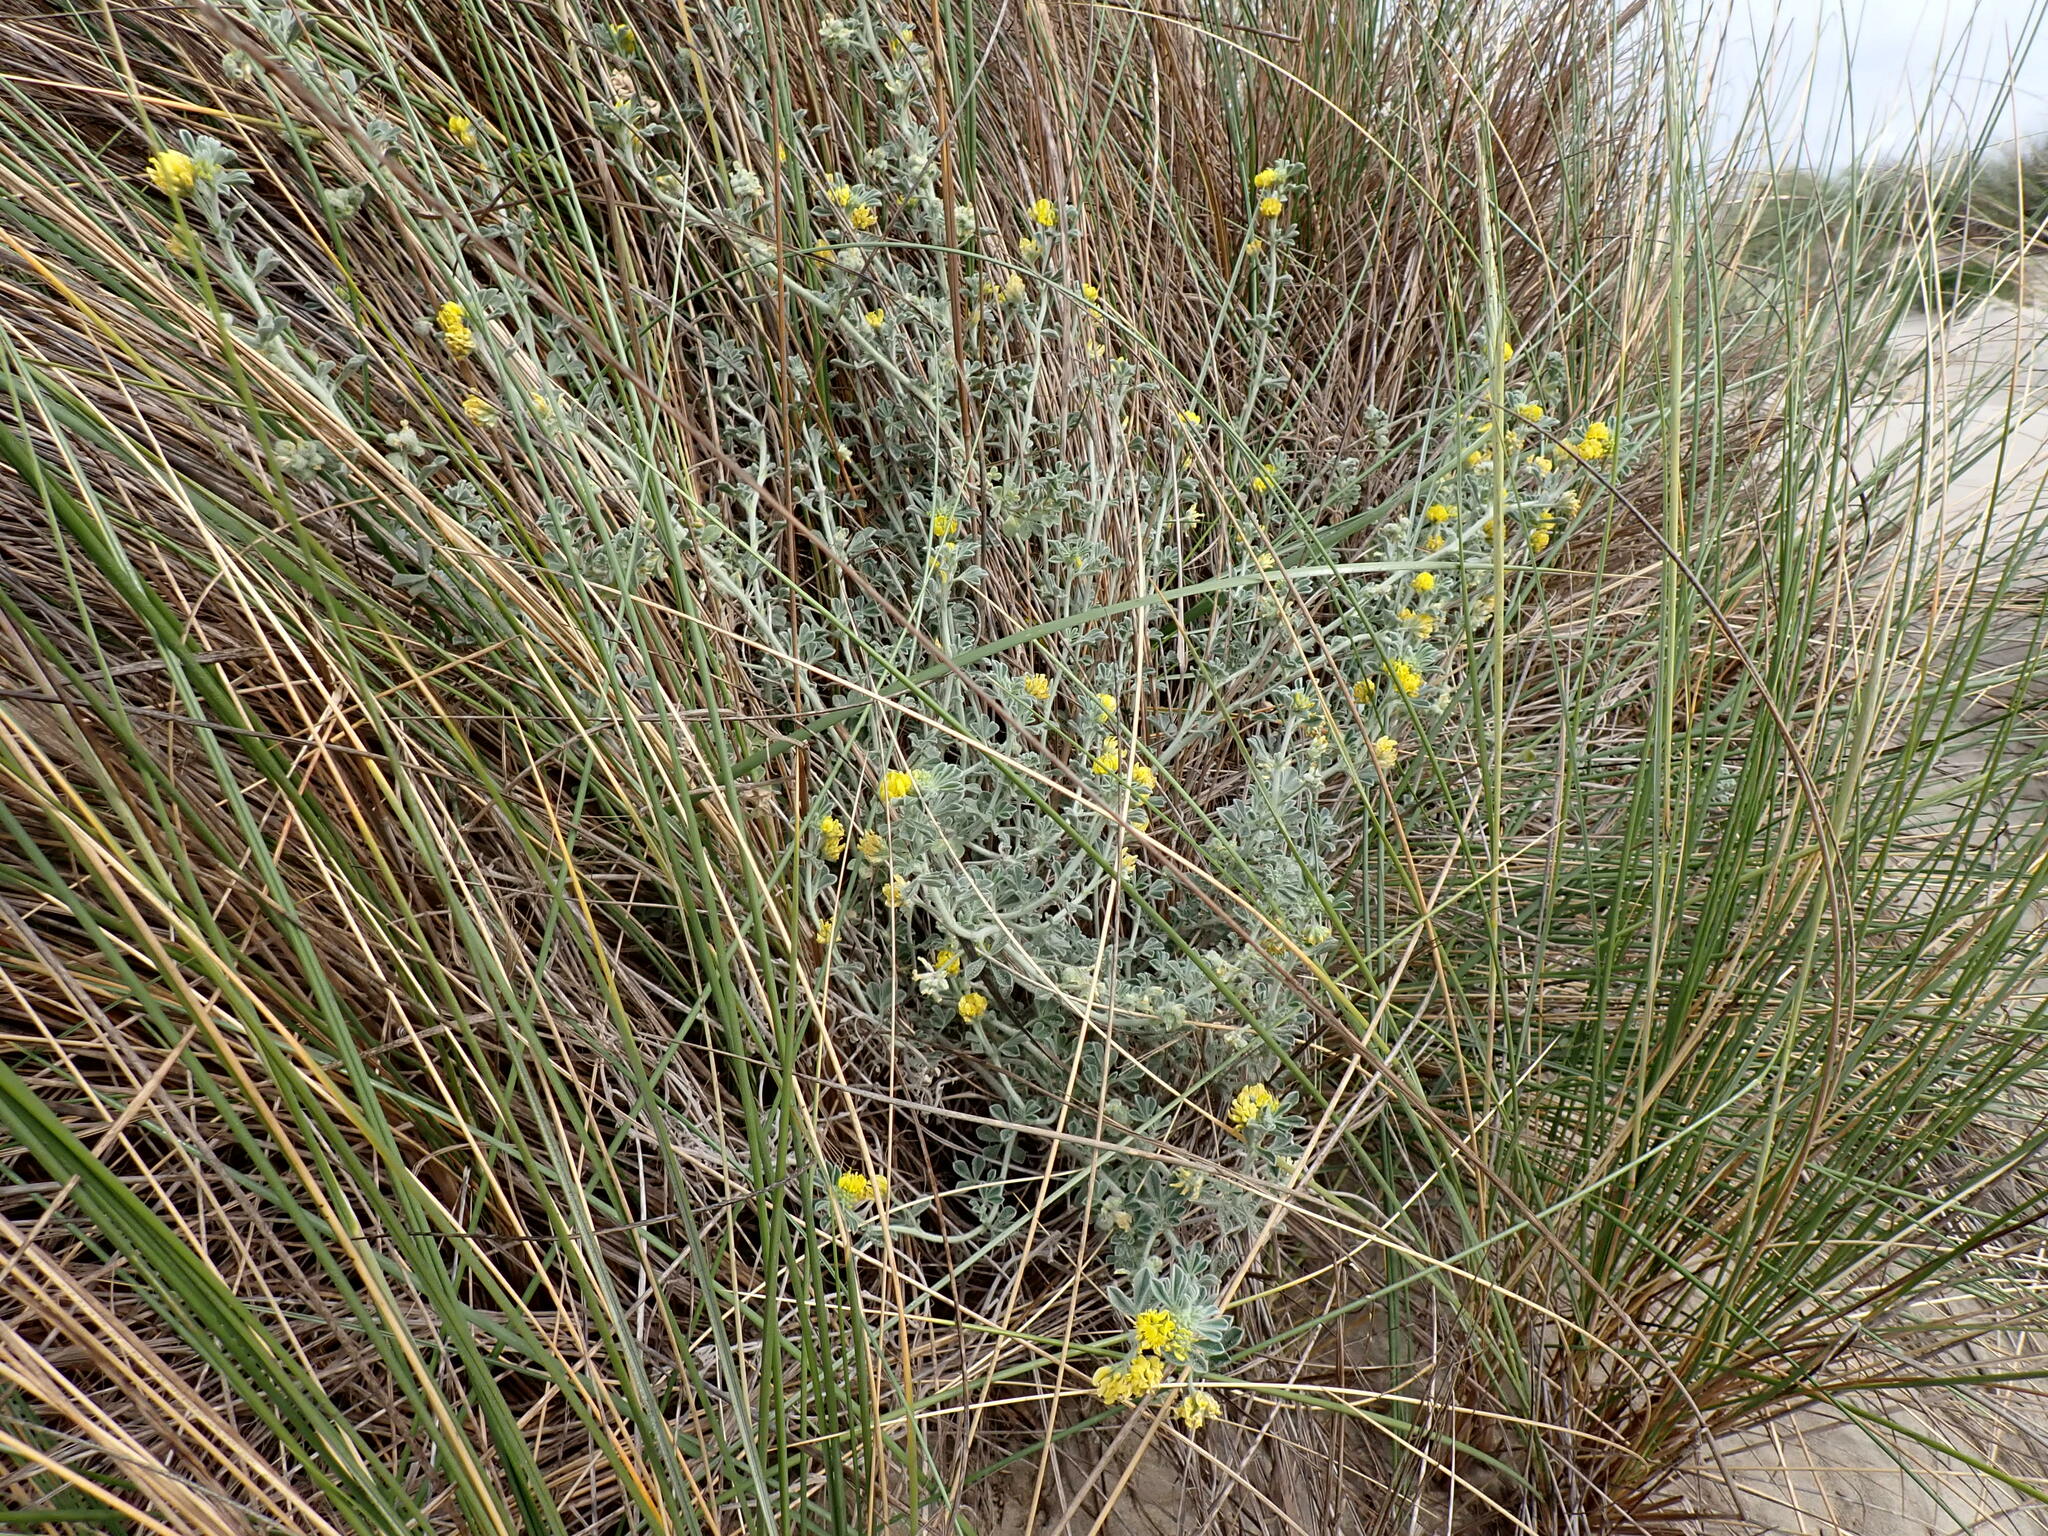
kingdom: Plantae
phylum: Tracheophyta
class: Magnoliopsida
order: Fabales
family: Fabaceae
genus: Medicago
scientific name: Medicago marina
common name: Sea medick
